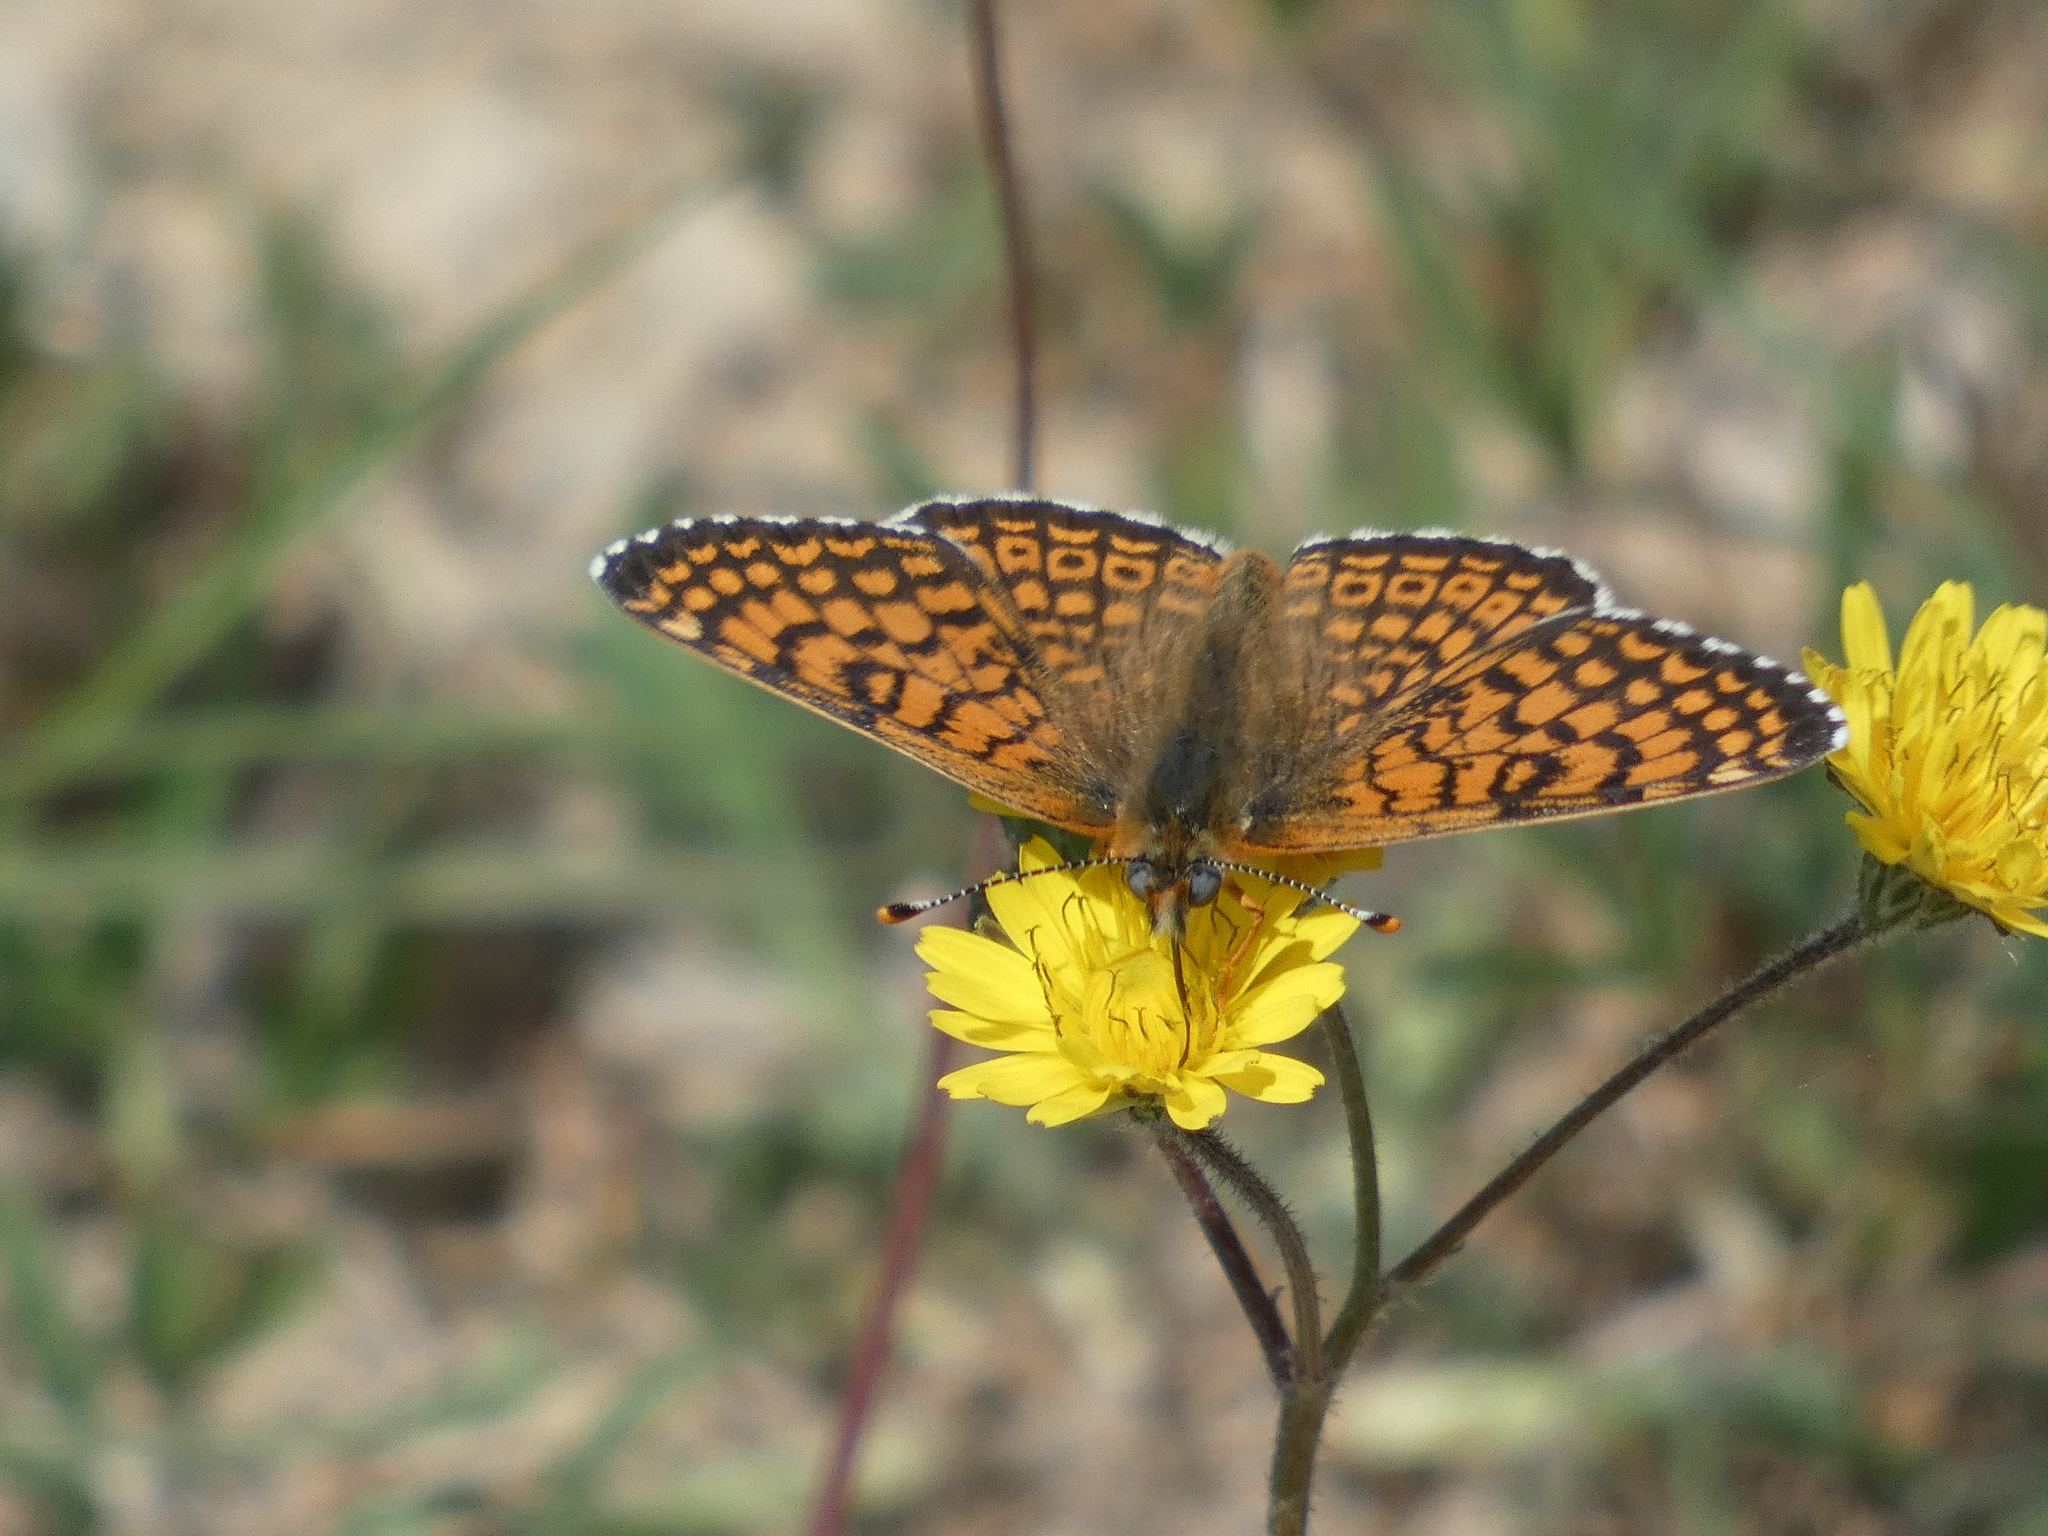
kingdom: Animalia
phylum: Arthropoda
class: Insecta
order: Lepidoptera
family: Nymphalidae
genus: Melitaea
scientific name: Melitaea cinxia
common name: Glanville fritillary
